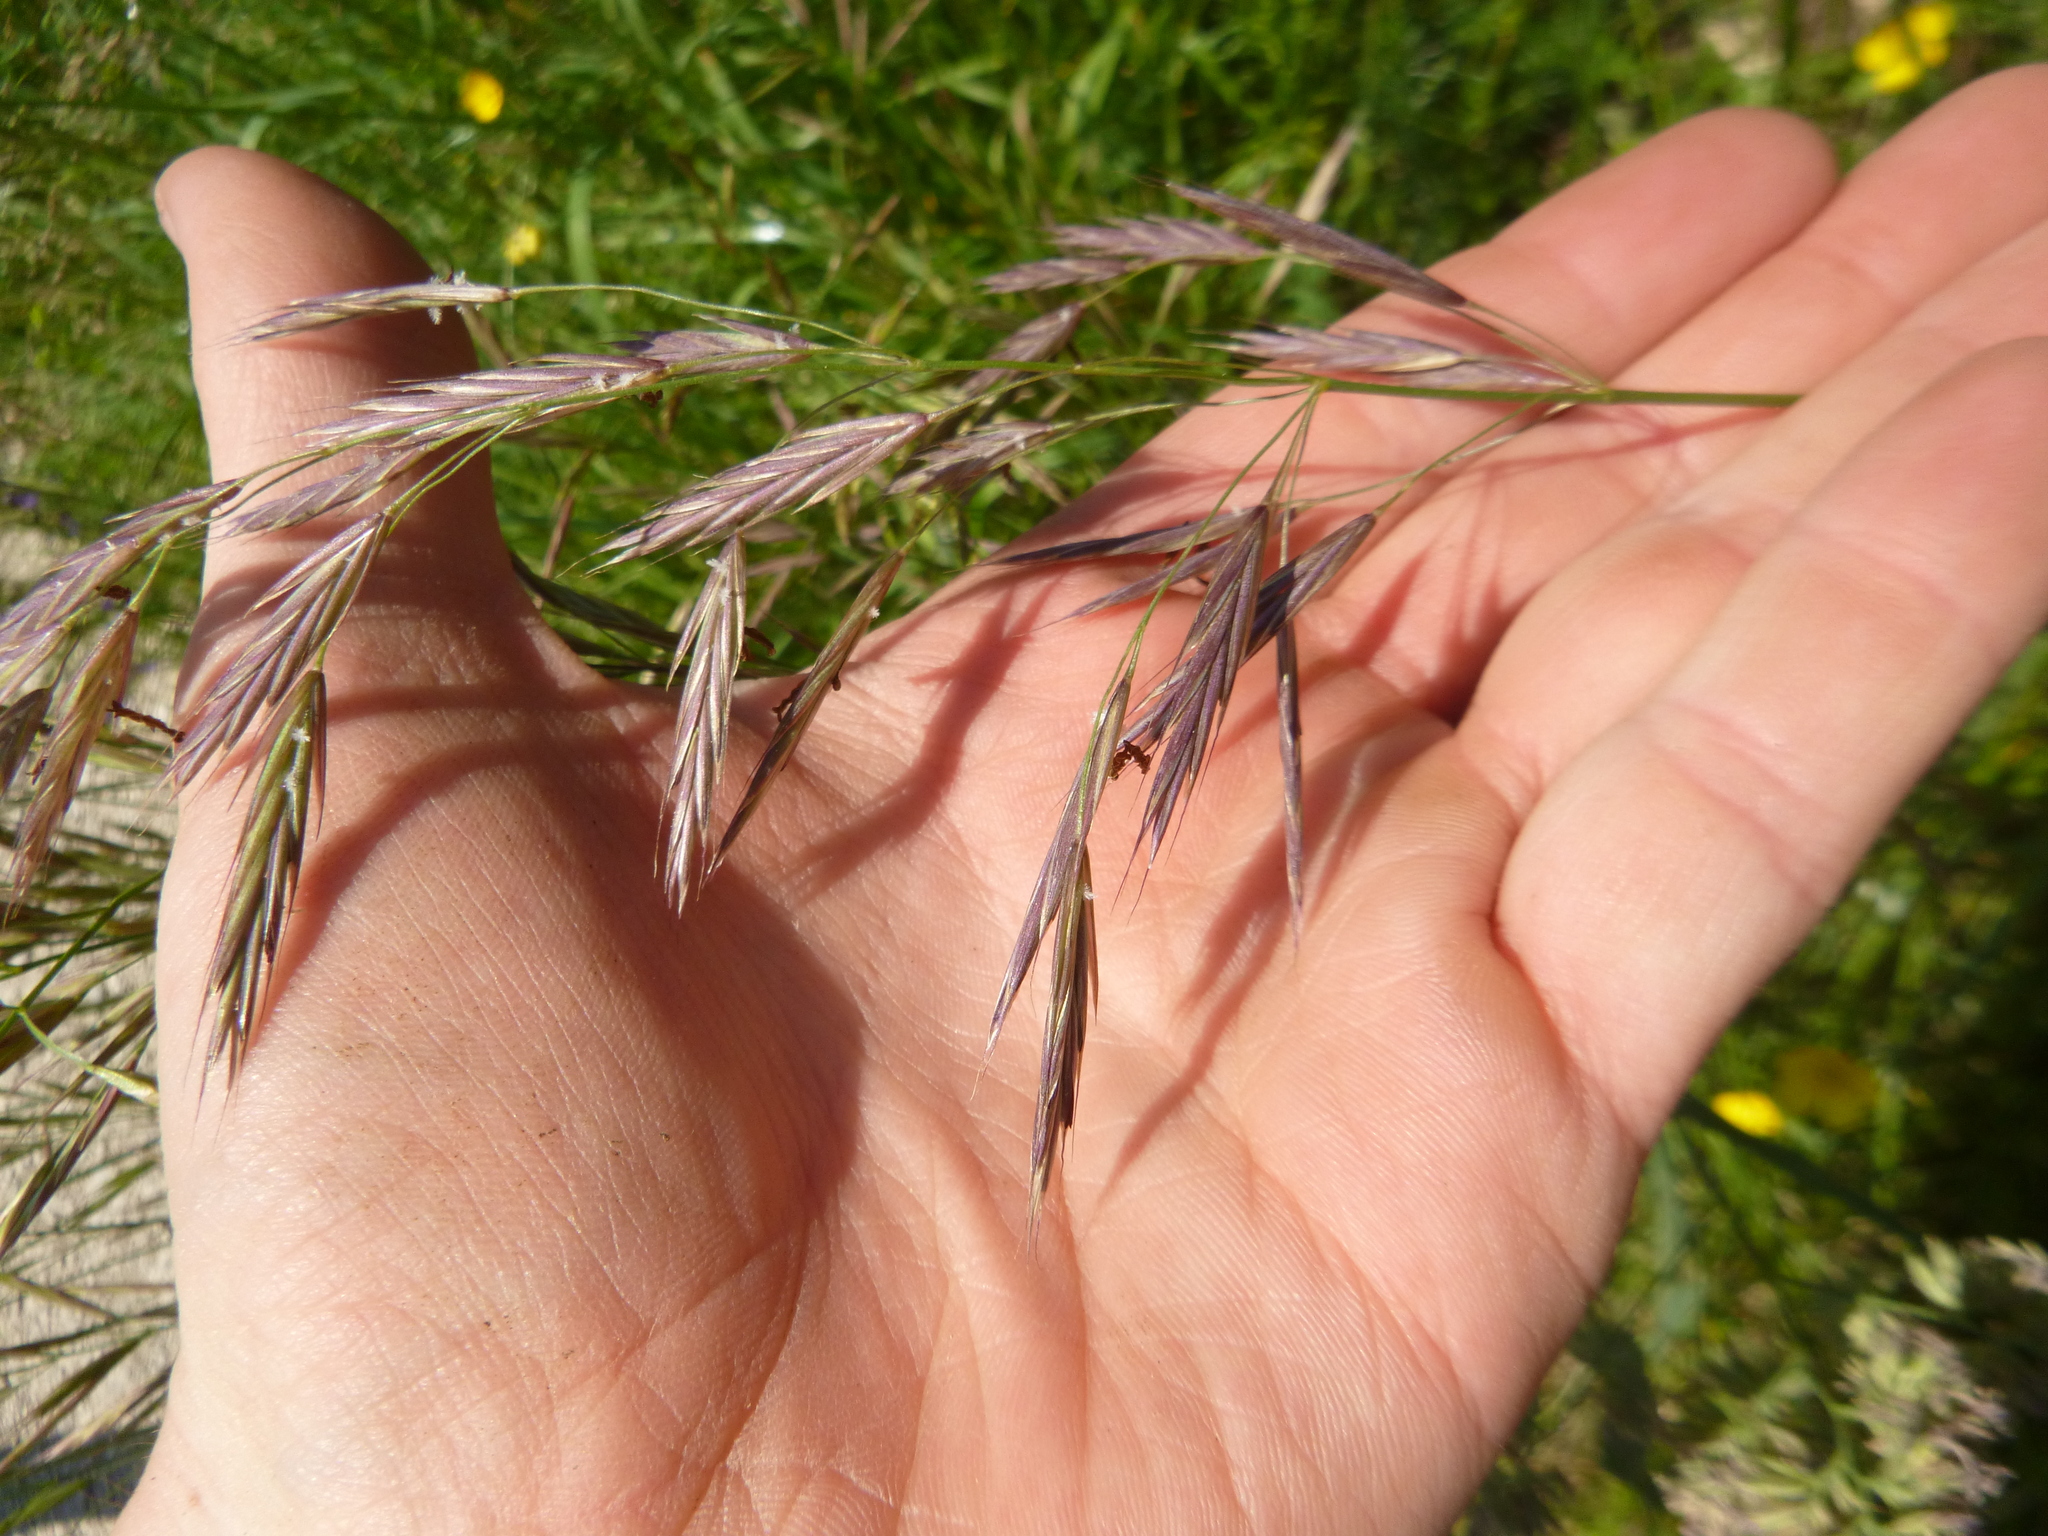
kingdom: Plantae
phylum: Tracheophyta
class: Liliopsida
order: Poales
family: Poaceae
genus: Bromus
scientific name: Bromus erectus
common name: Erect brome
